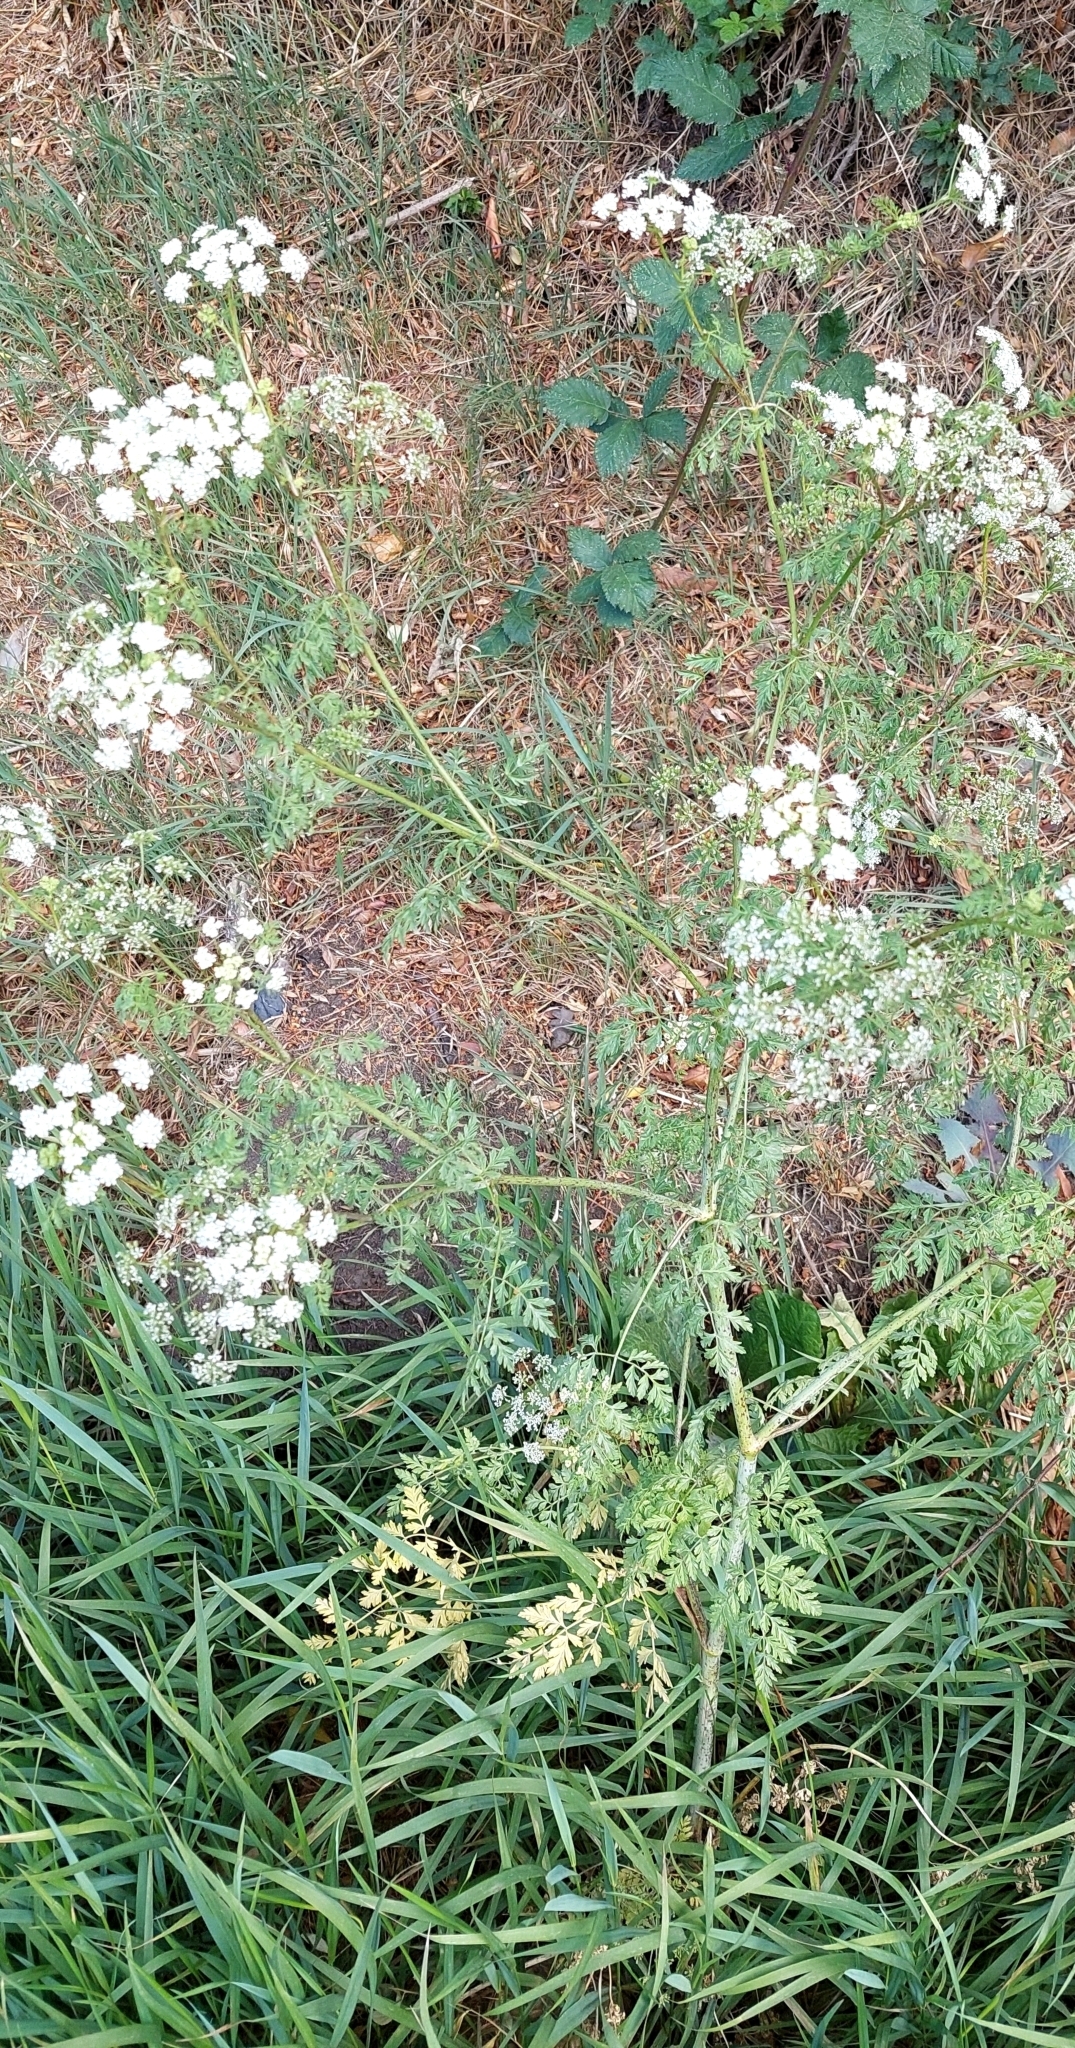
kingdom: Plantae
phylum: Tracheophyta
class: Magnoliopsida
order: Apiales
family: Apiaceae
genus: Conium
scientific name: Conium maculatum
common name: Hemlock
